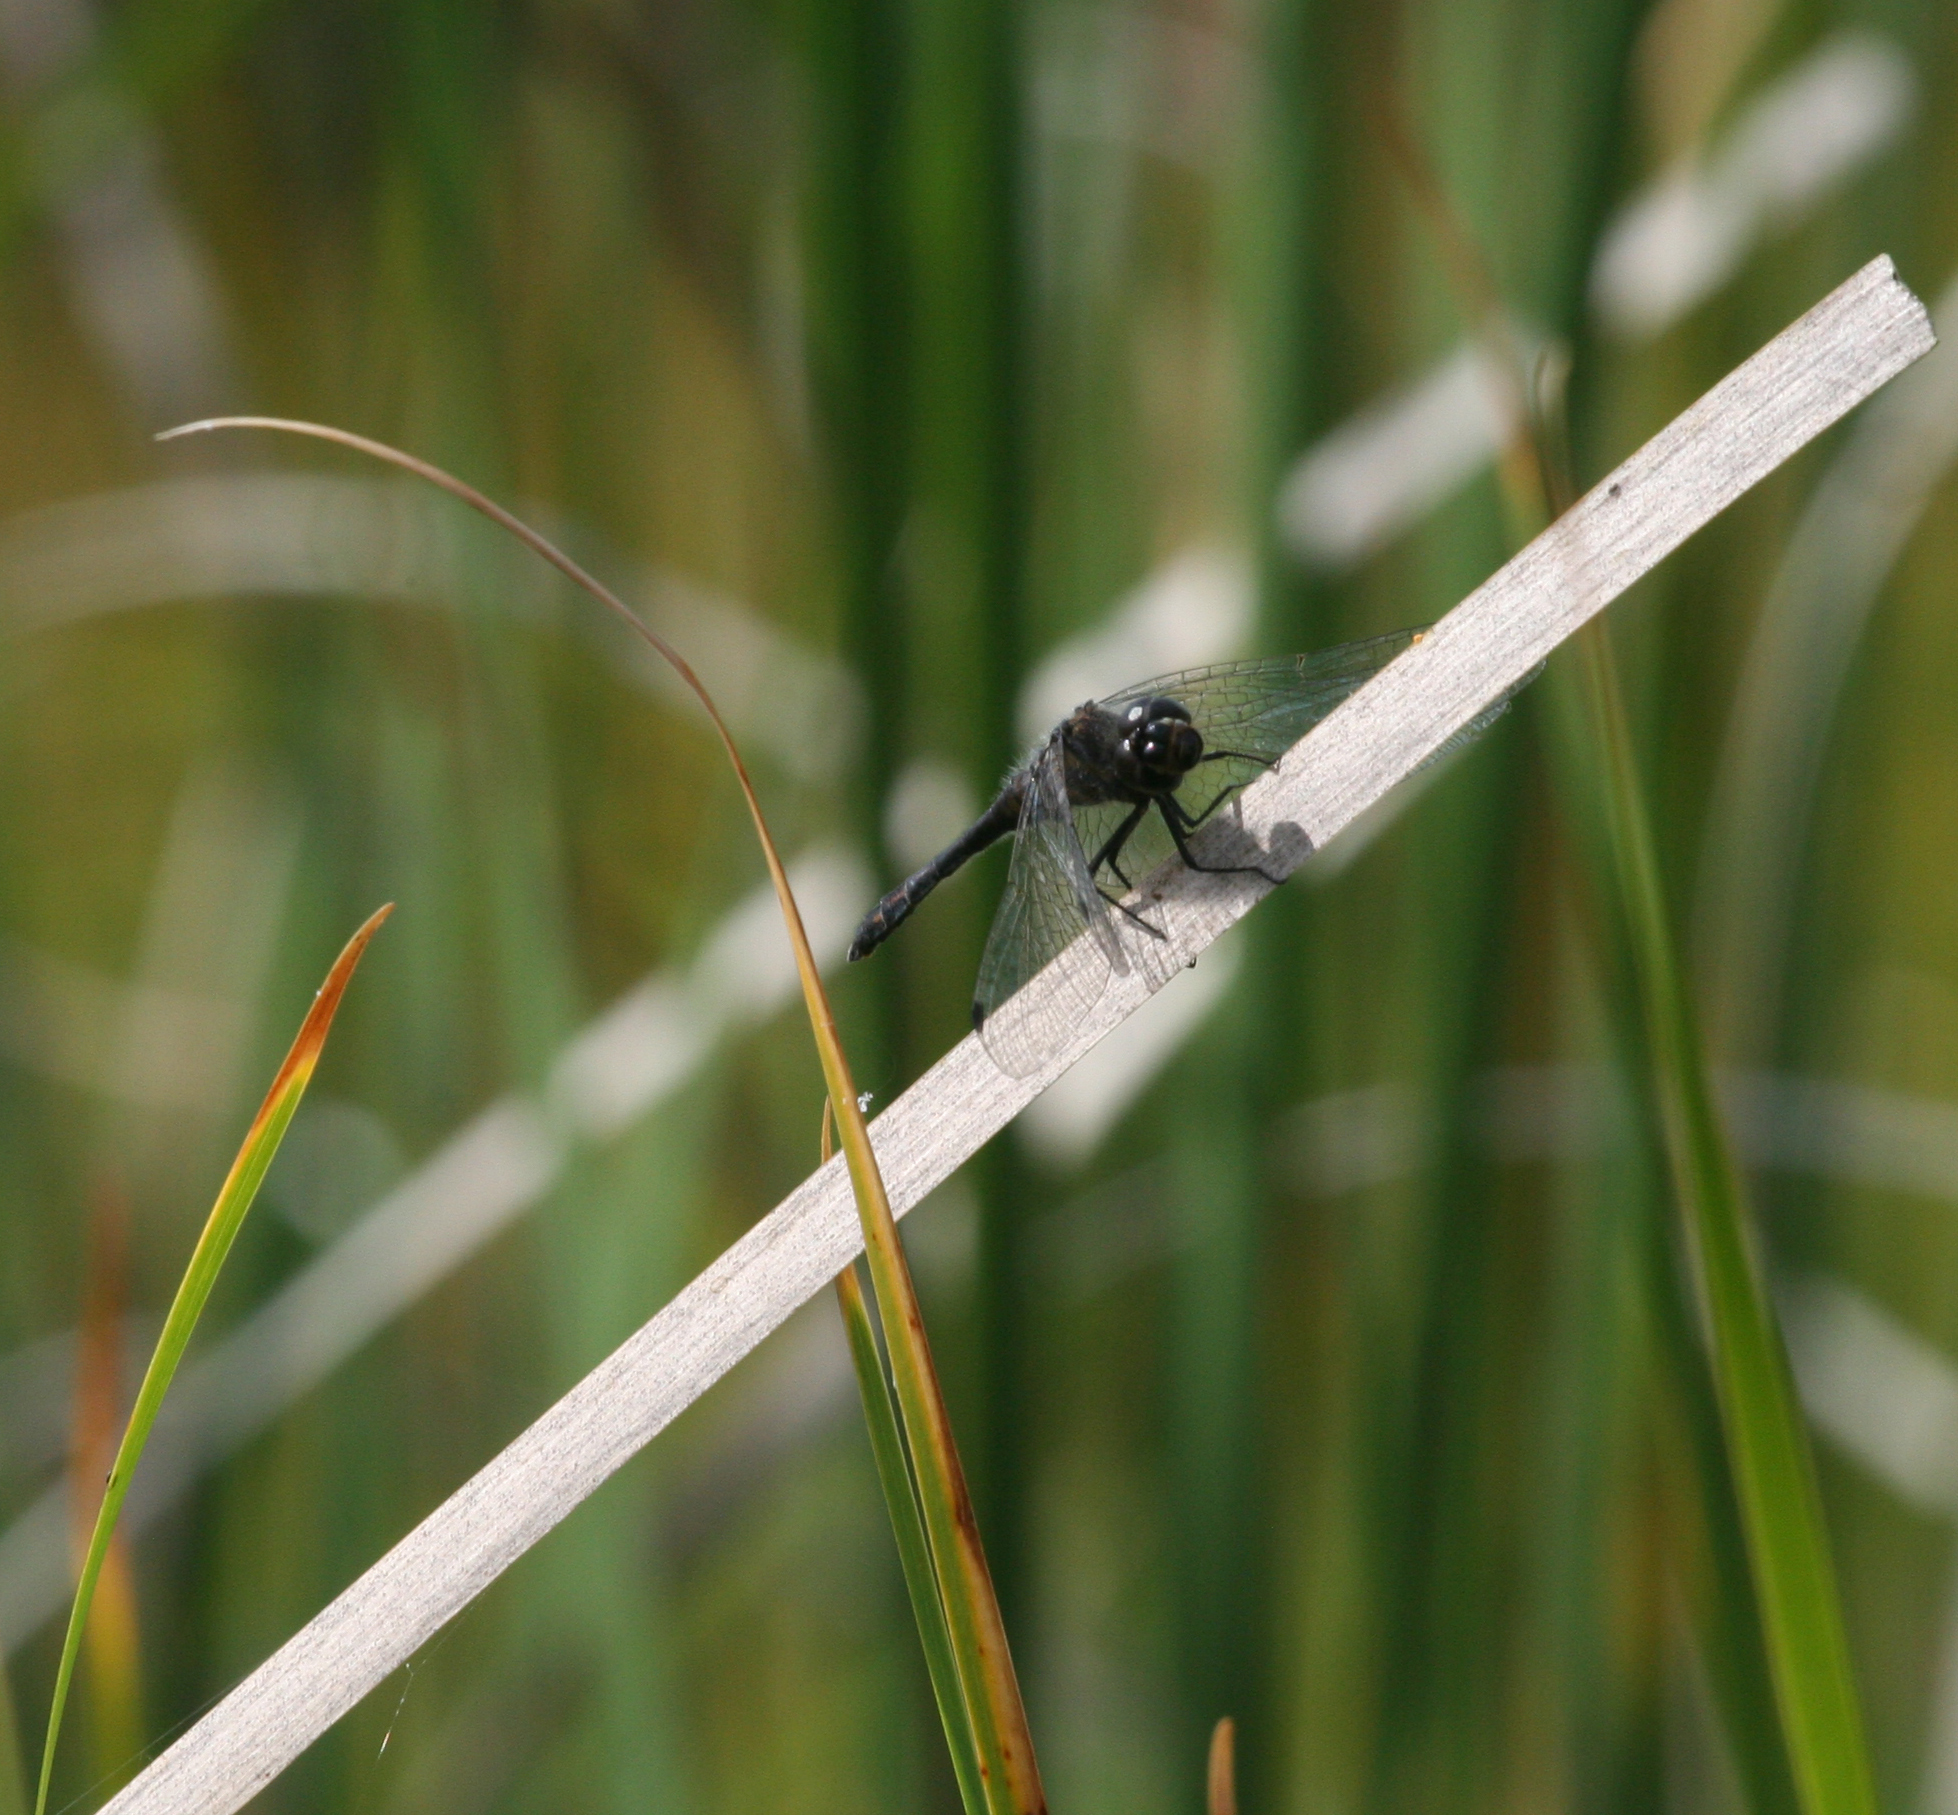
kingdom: Animalia
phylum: Arthropoda
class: Insecta
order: Odonata
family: Libellulidae
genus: Sympetrum
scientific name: Sympetrum danae
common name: Black darter
